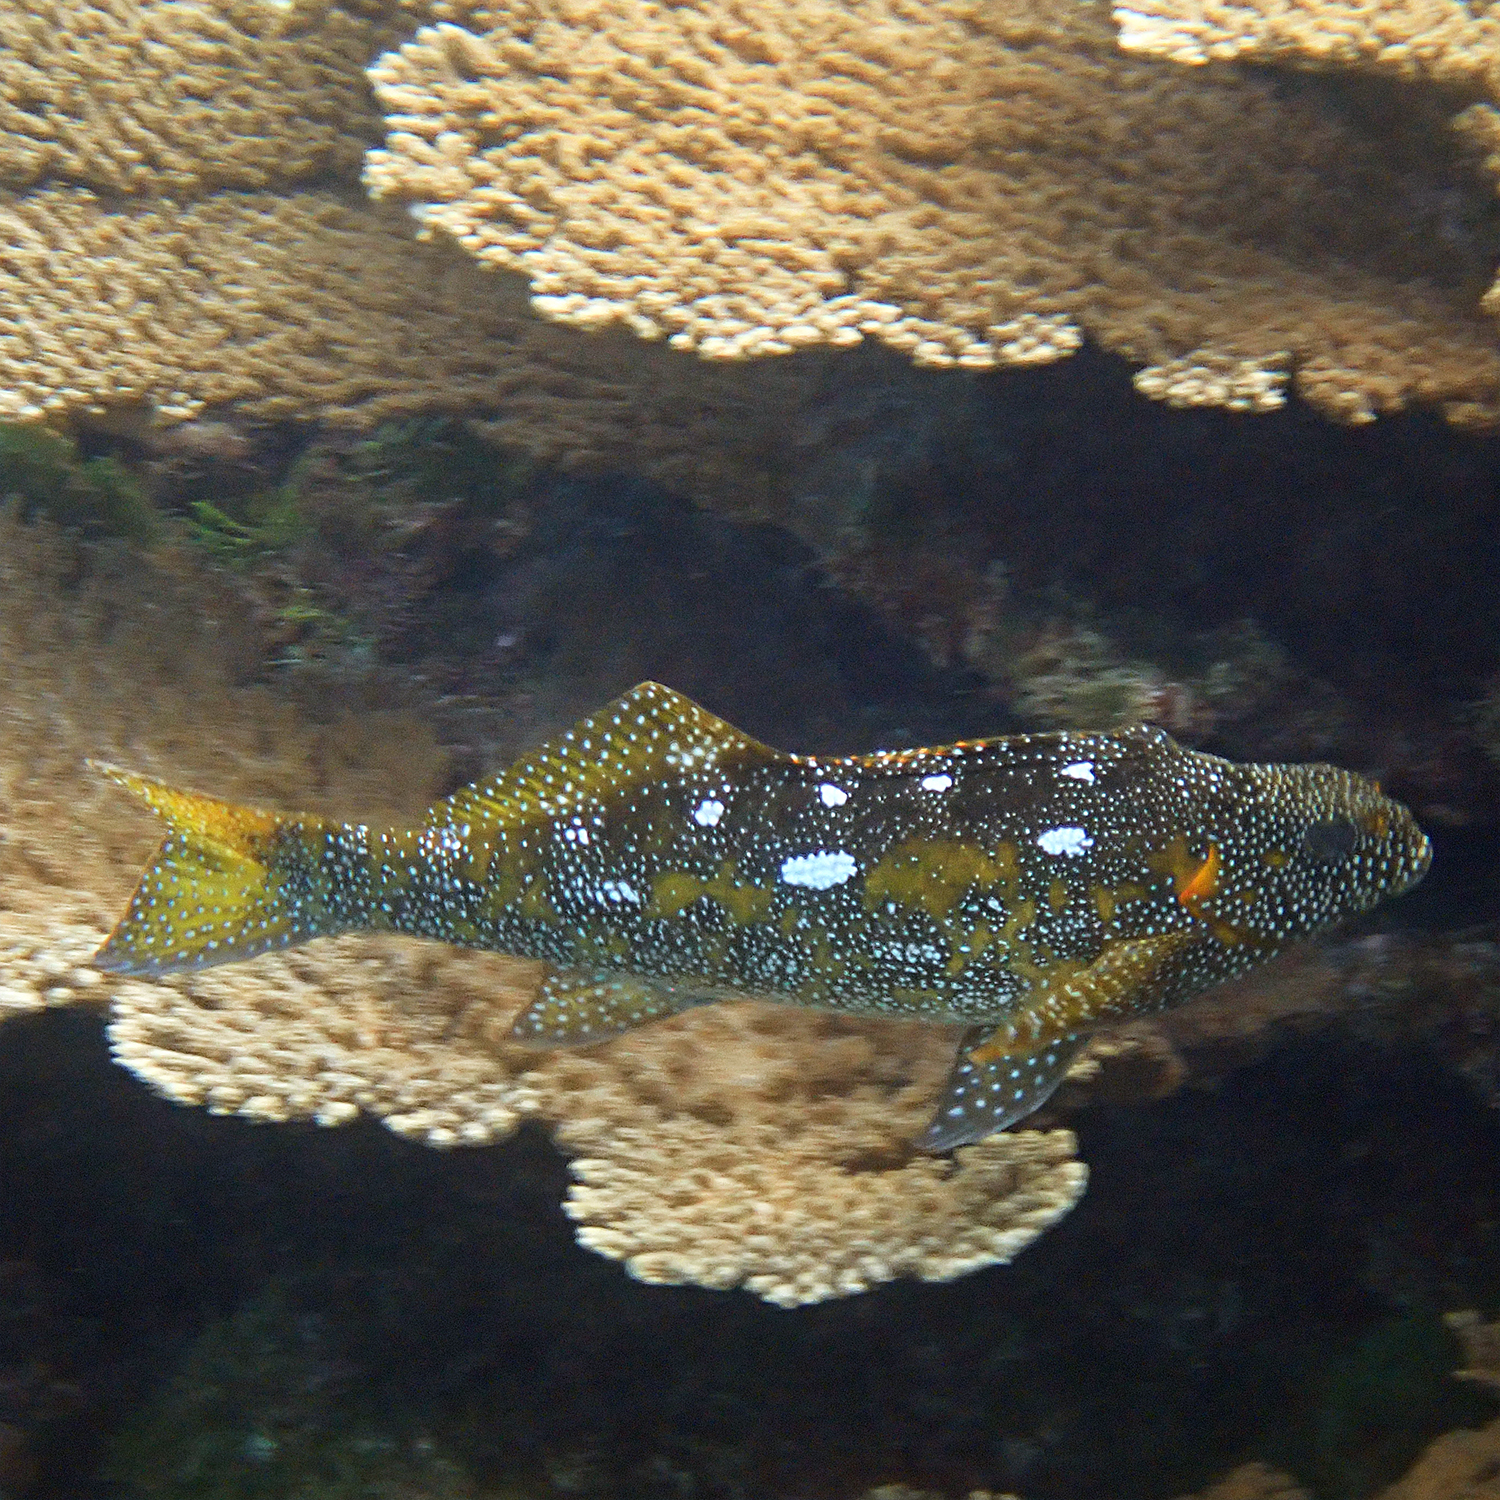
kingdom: Animalia
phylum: Chordata
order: Perciformes
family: Aplodactylidae
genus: Aplodactylus
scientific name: Aplodactylus etheridgii
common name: Notchheaded marblefish
